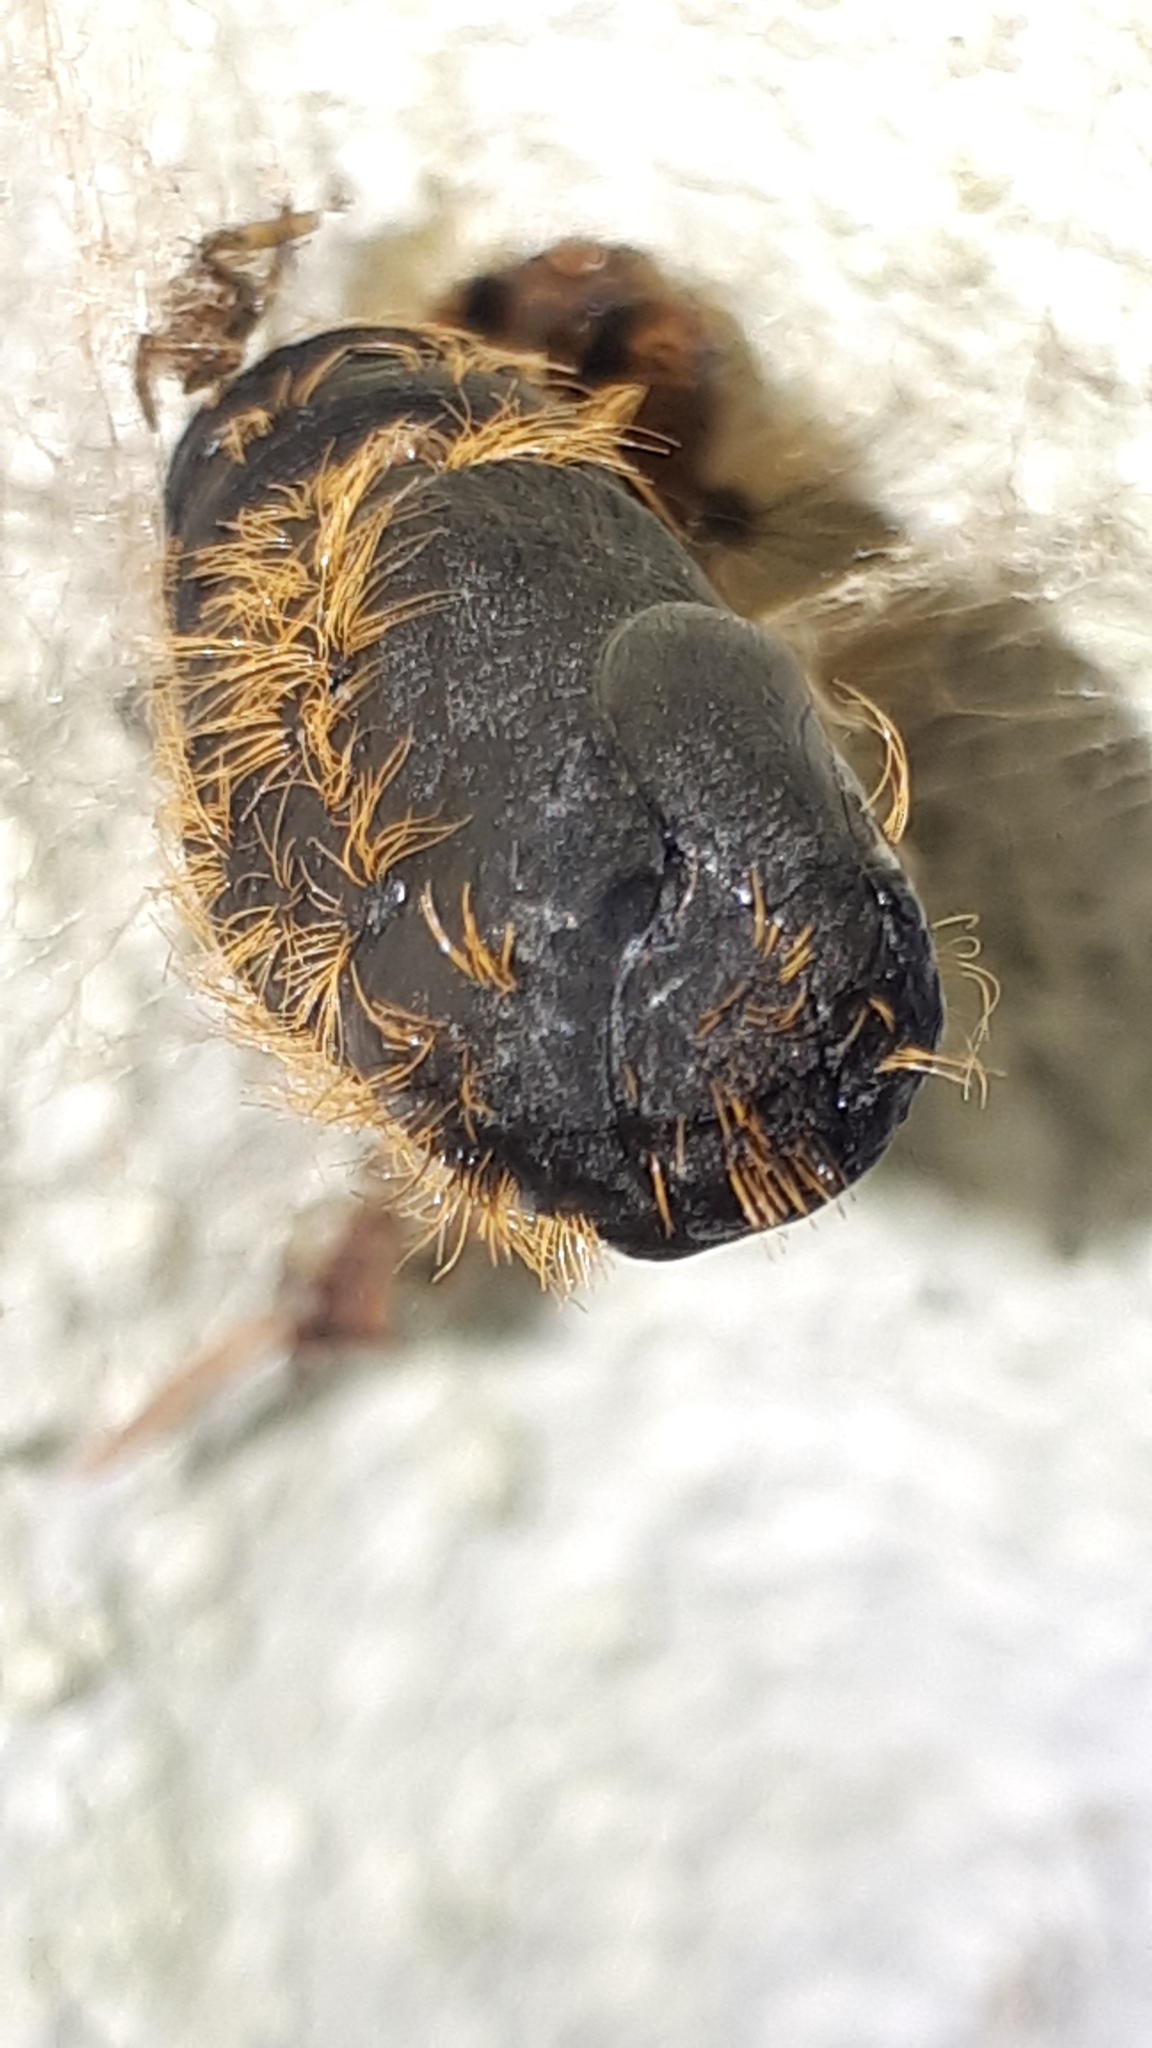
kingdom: Animalia
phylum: Arthropoda
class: Insecta
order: Lepidoptera
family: Erebidae
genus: Lymantria
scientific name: Lymantria dispar
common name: Gypsy moth
